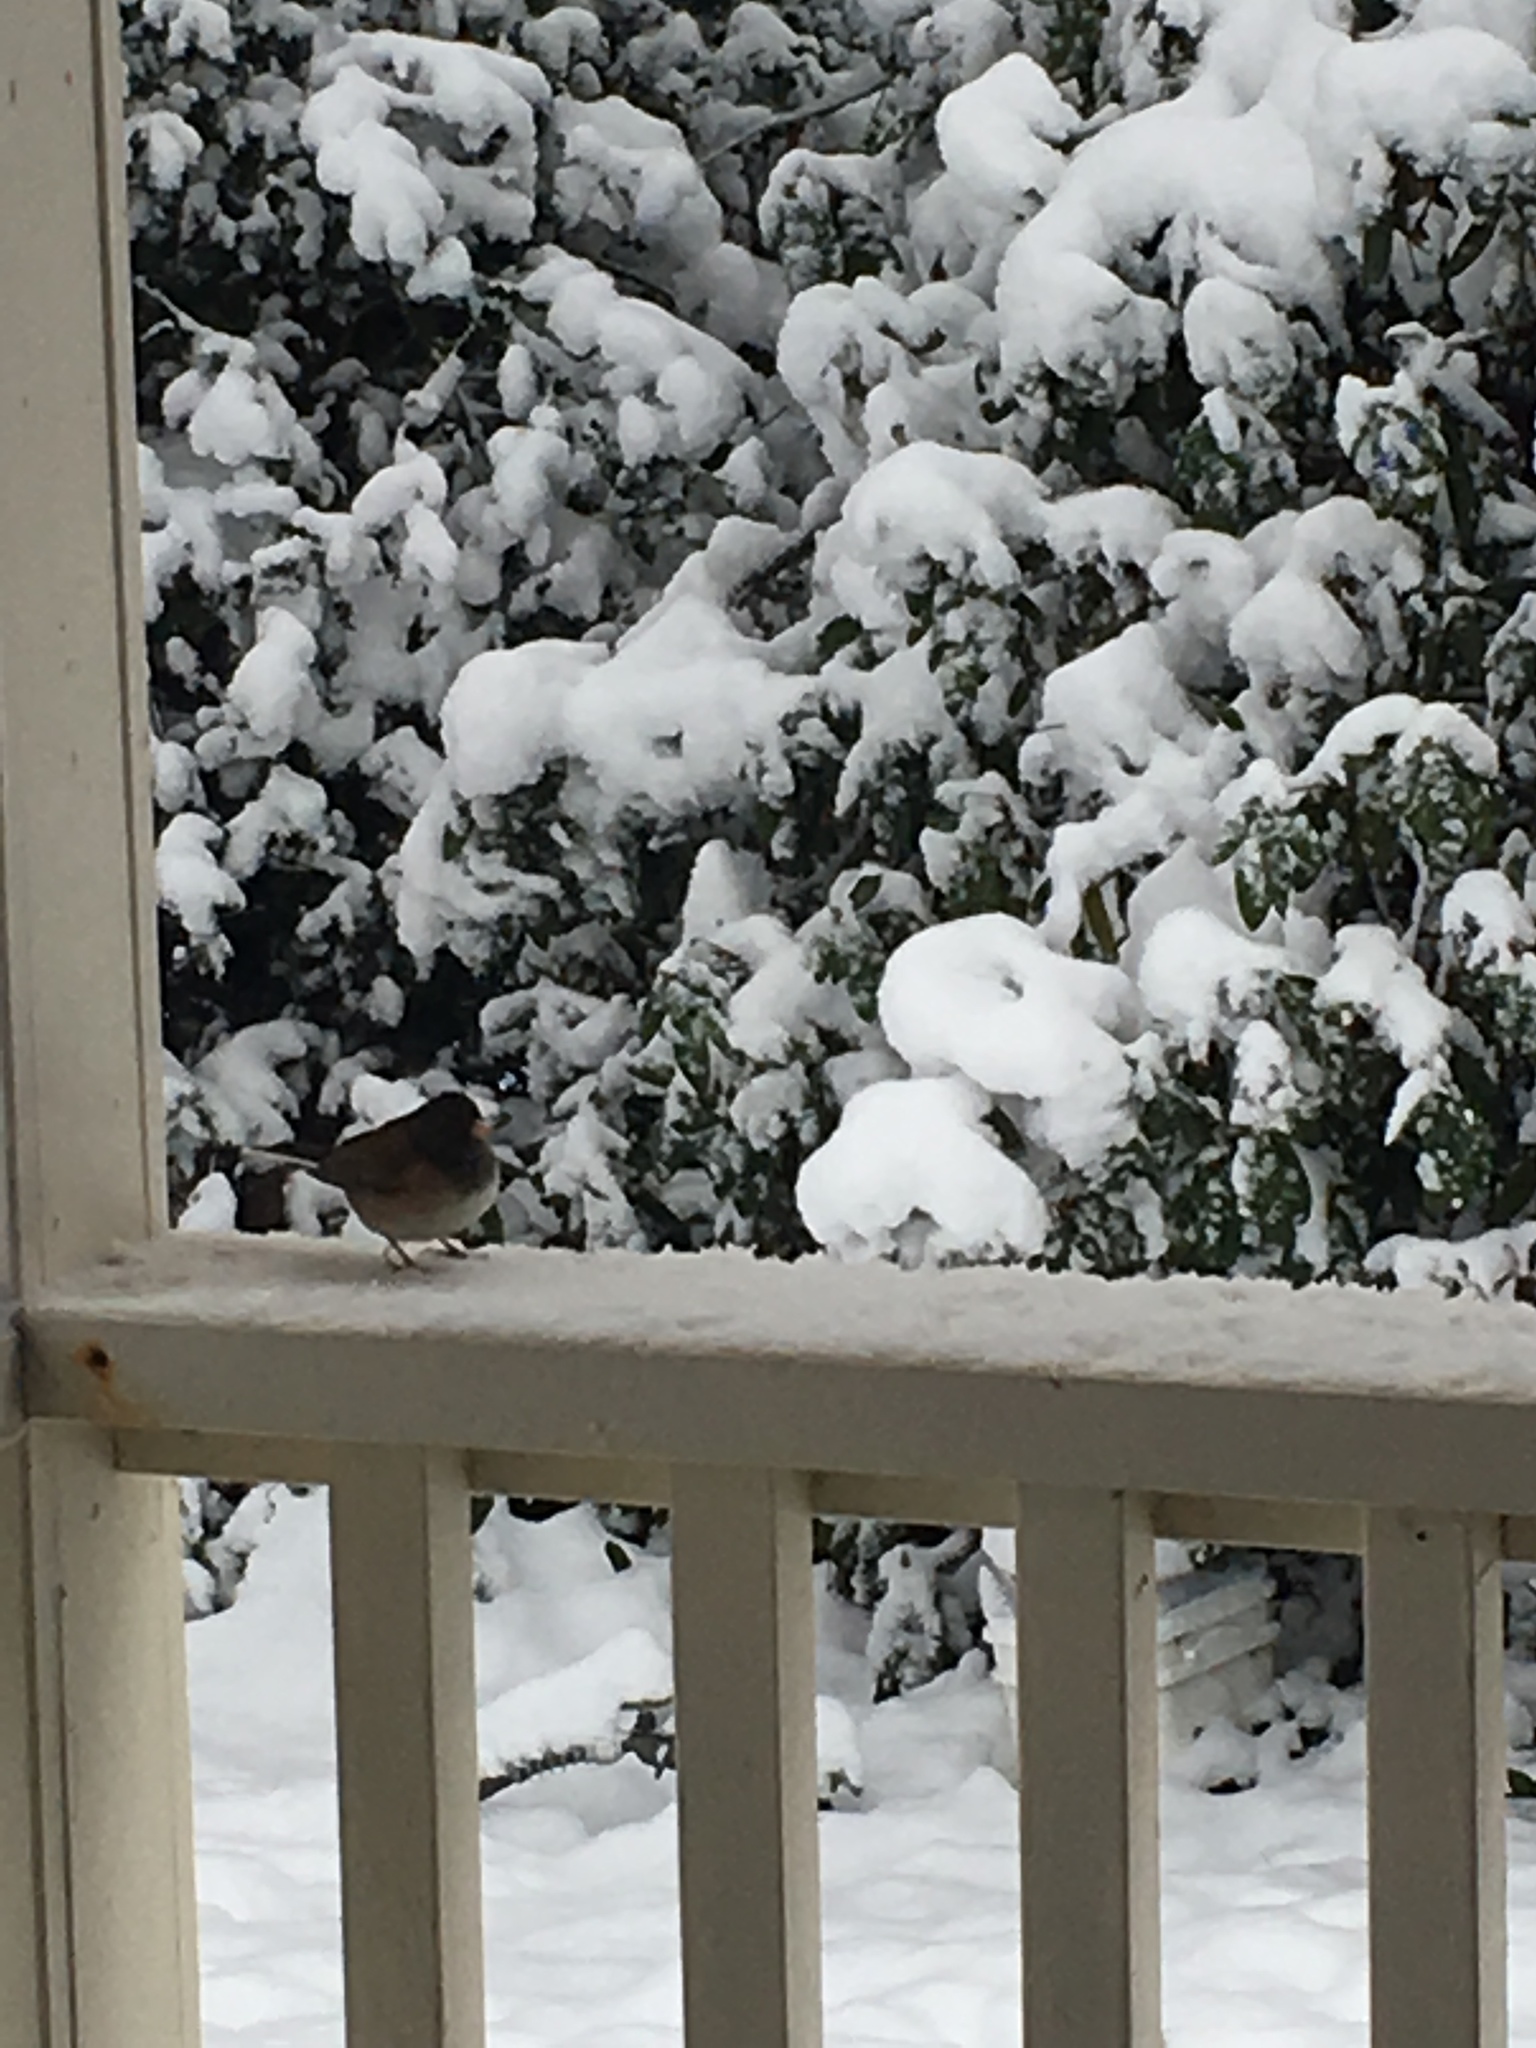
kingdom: Animalia
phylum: Chordata
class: Aves
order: Passeriformes
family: Passerellidae
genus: Junco
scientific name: Junco hyemalis
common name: Dark-eyed junco
